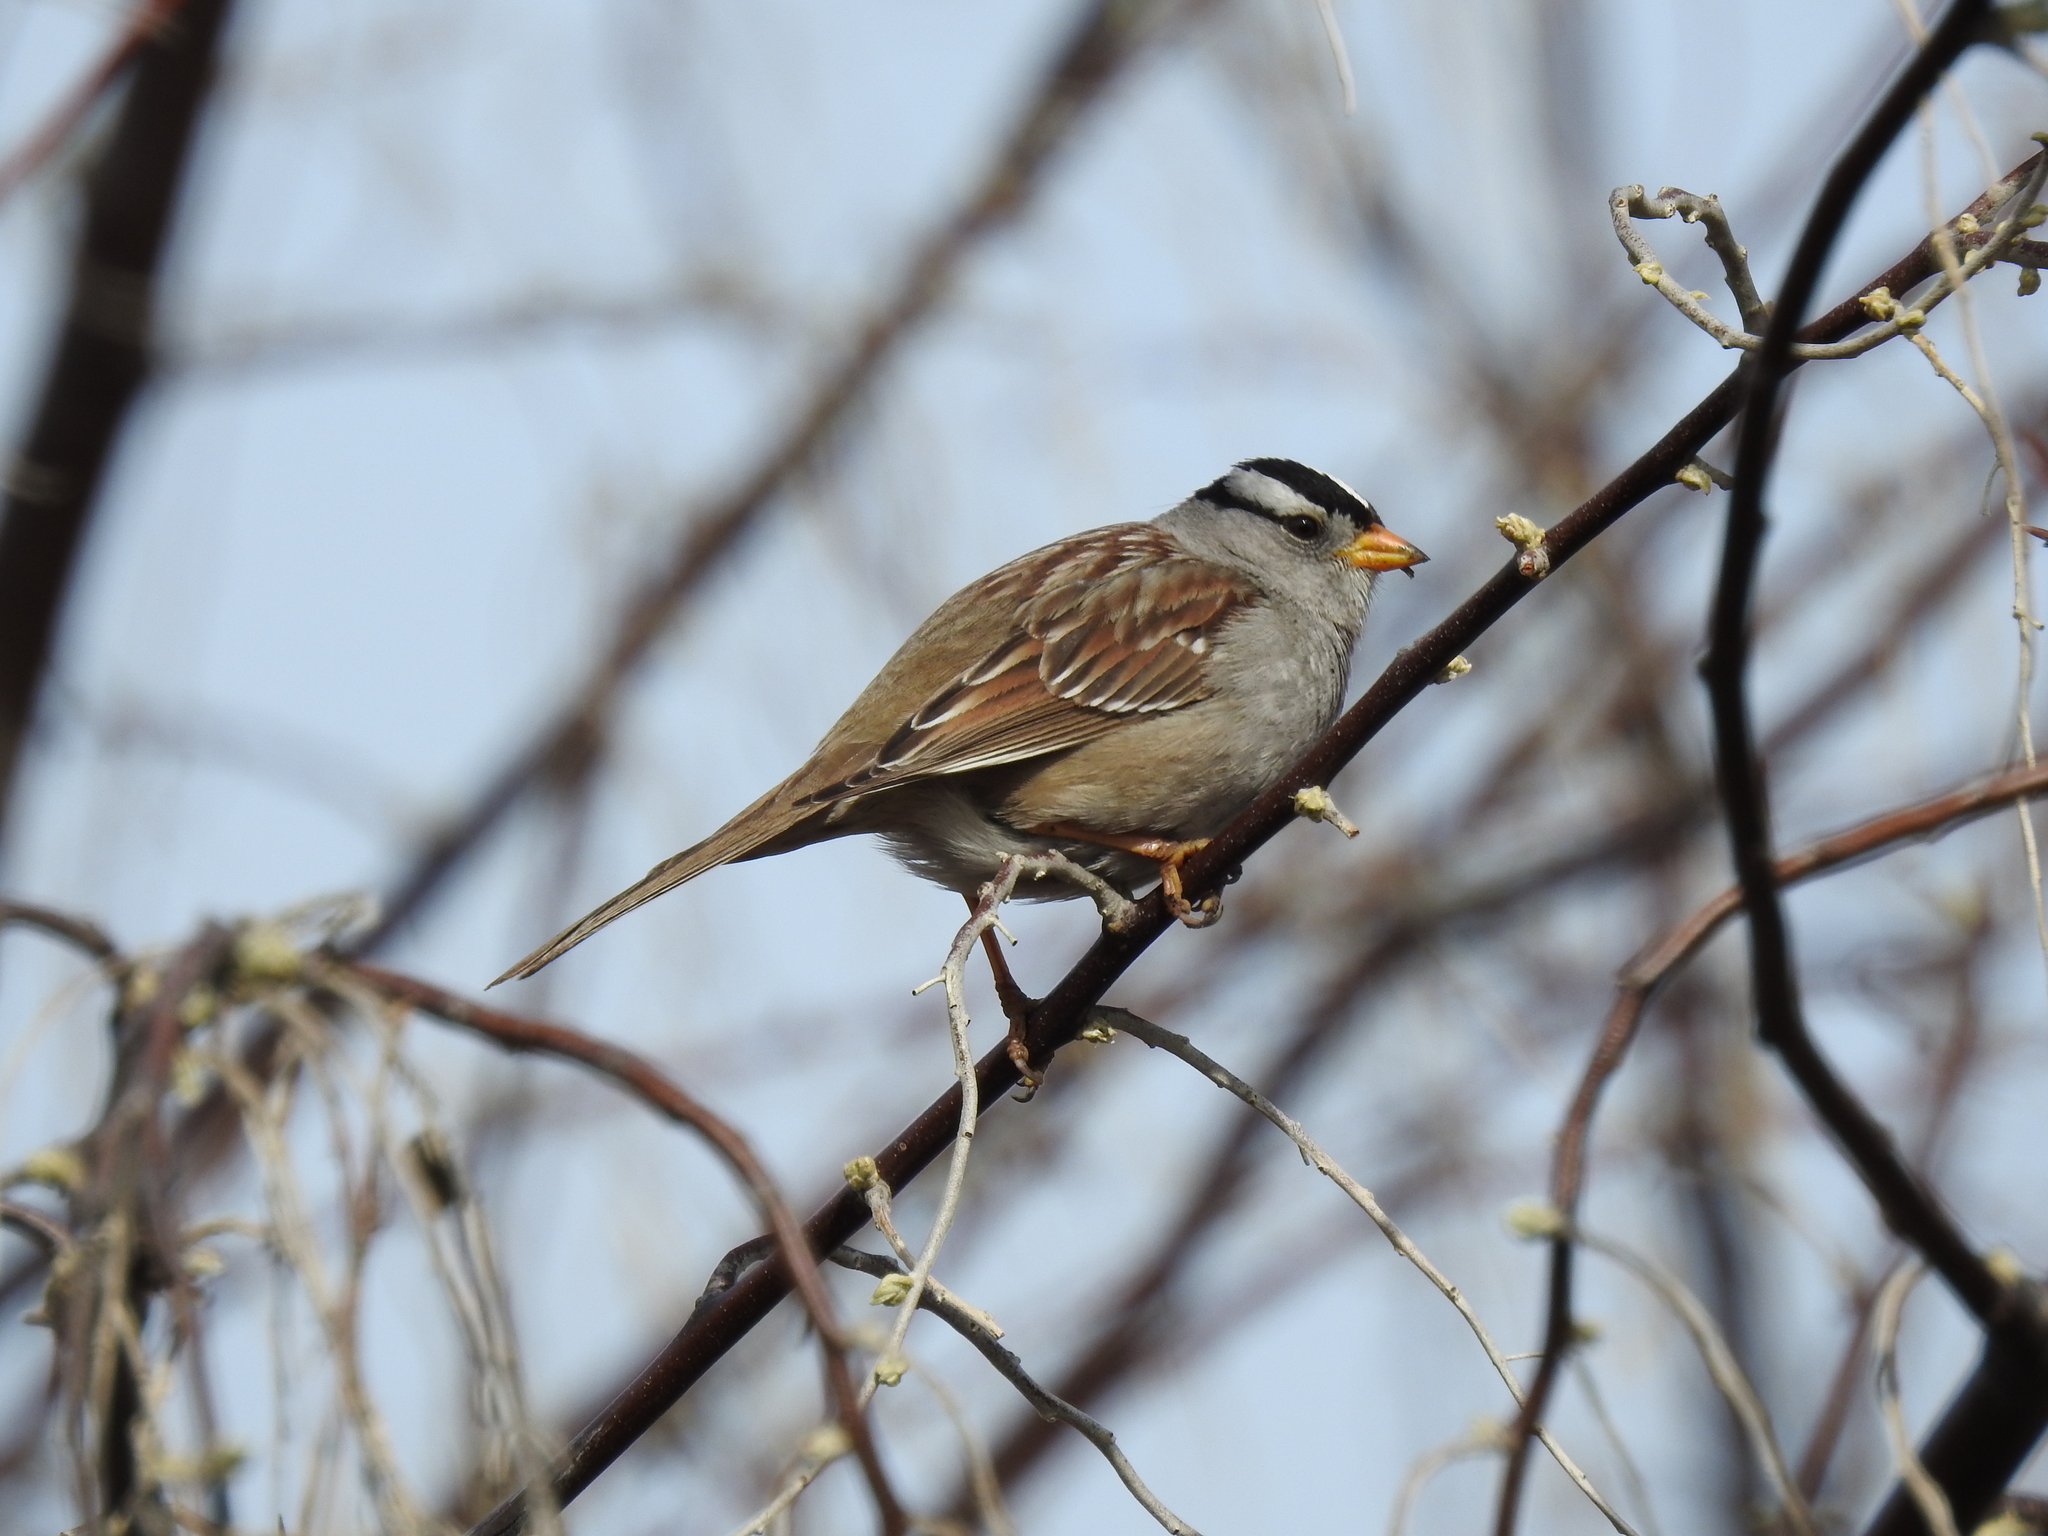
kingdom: Animalia
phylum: Chordata
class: Aves
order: Passeriformes
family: Passerellidae
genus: Zonotrichia
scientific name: Zonotrichia leucophrys
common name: White-crowned sparrow
